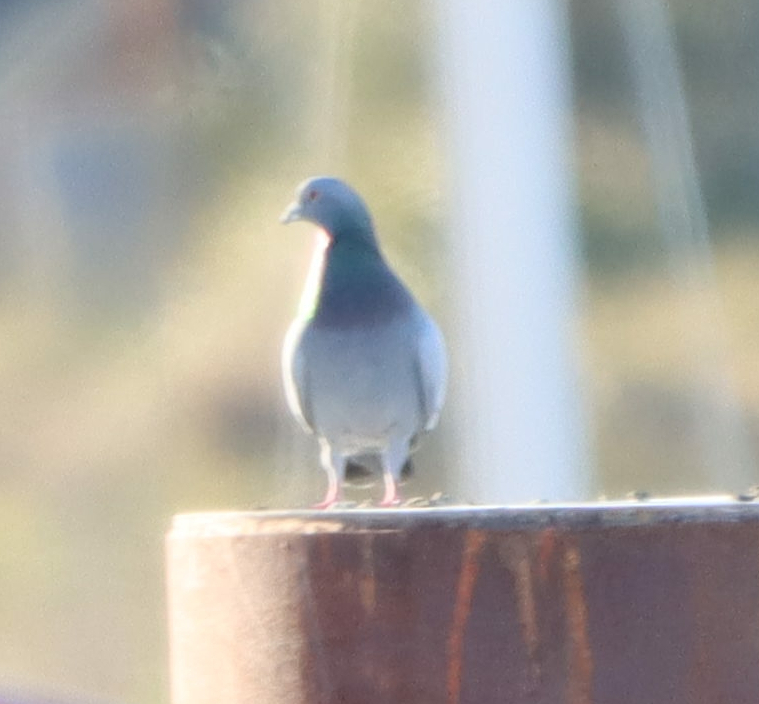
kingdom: Animalia
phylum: Chordata
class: Aves
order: Columbiformes
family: Columbidae
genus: Columba
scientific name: Columba livia
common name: Rock pigeon
